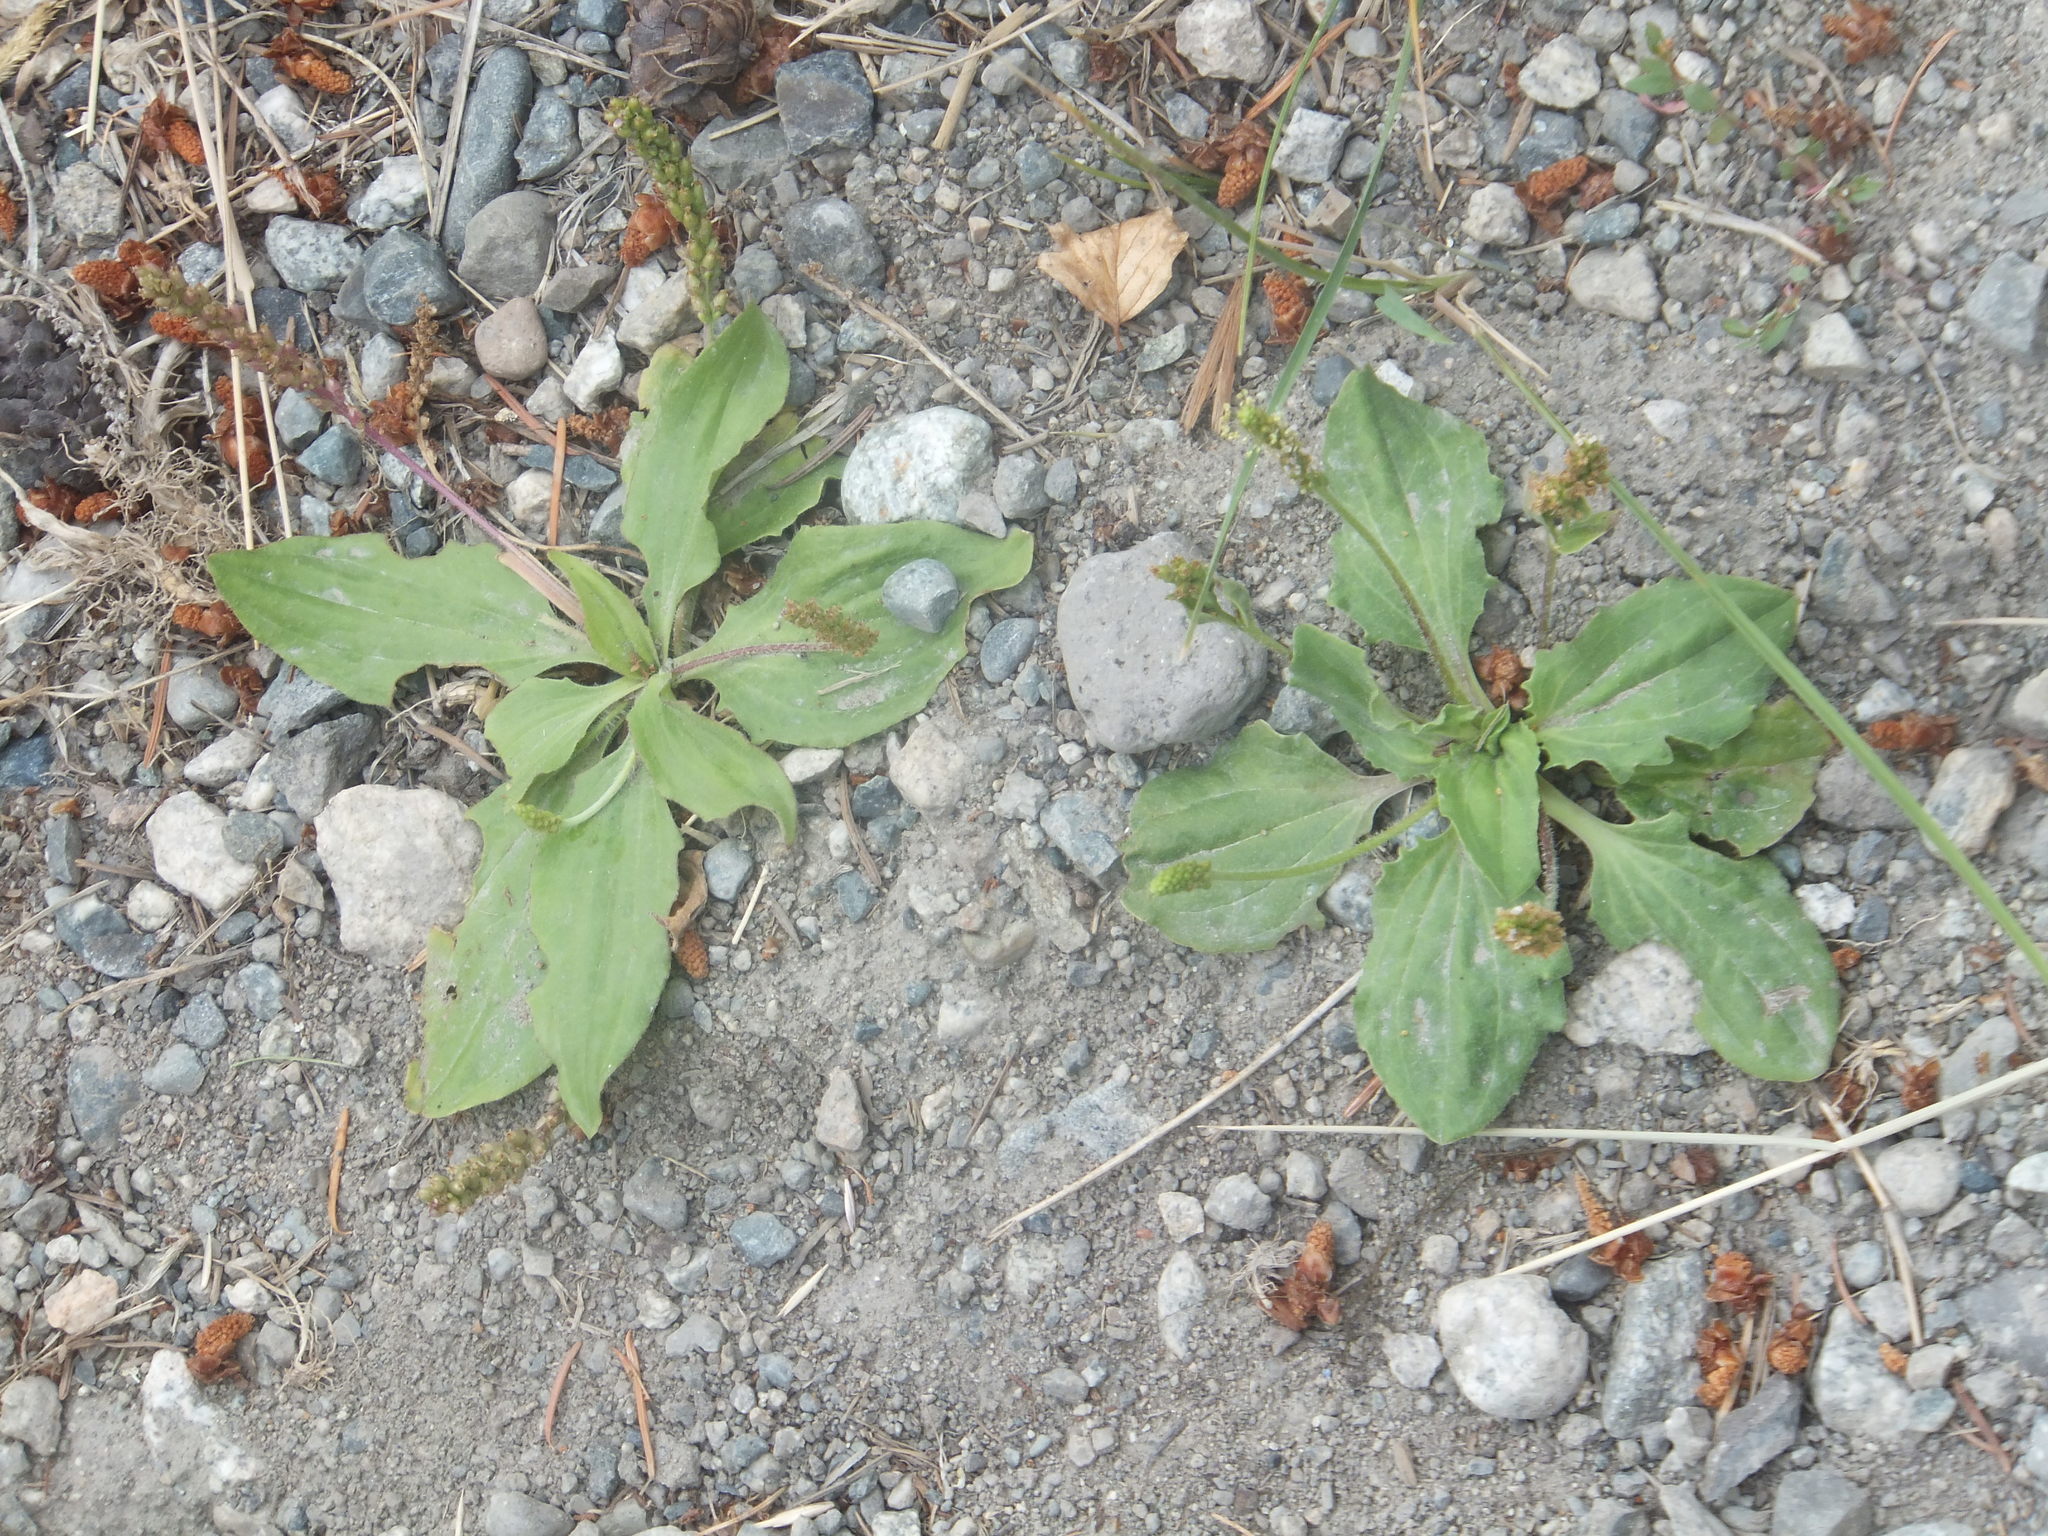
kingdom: Plantae
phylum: Tracheophyta
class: Magnoliopsida
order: Lamiales
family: Plantaginaceae
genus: Plantago
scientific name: Plantago major
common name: Common plantain
